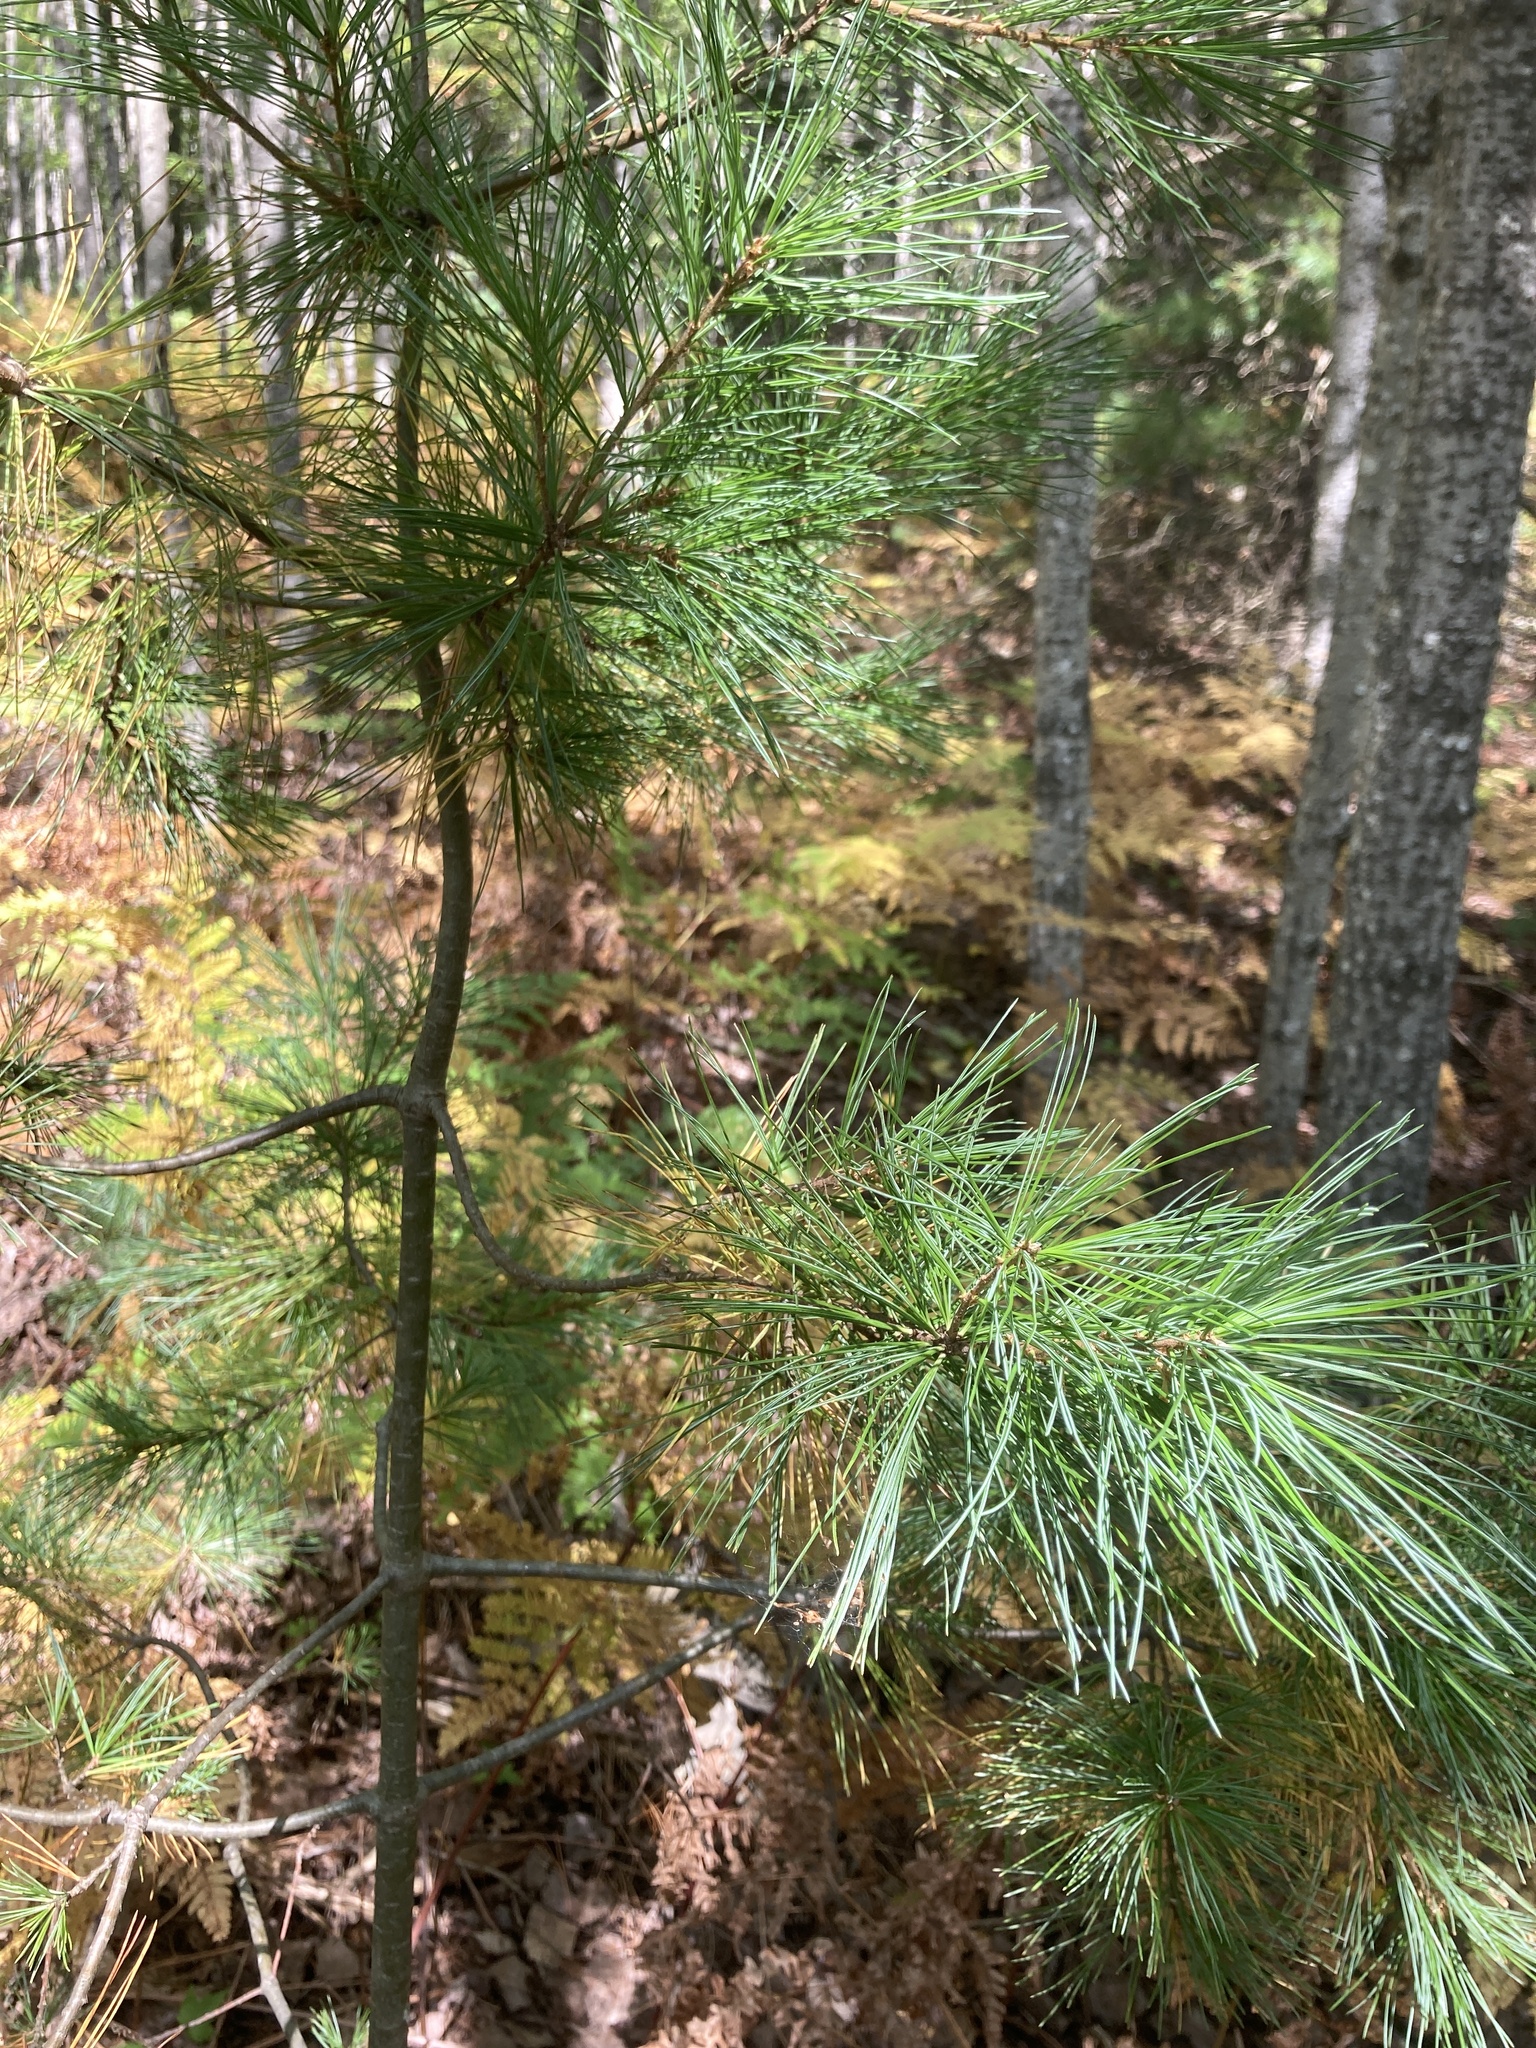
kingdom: Plantae
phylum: Tracheophyta
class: Pinopsida
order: Pinales
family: Pinaceae
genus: Pinus
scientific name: Pinus strobus
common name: Weymouth pine
